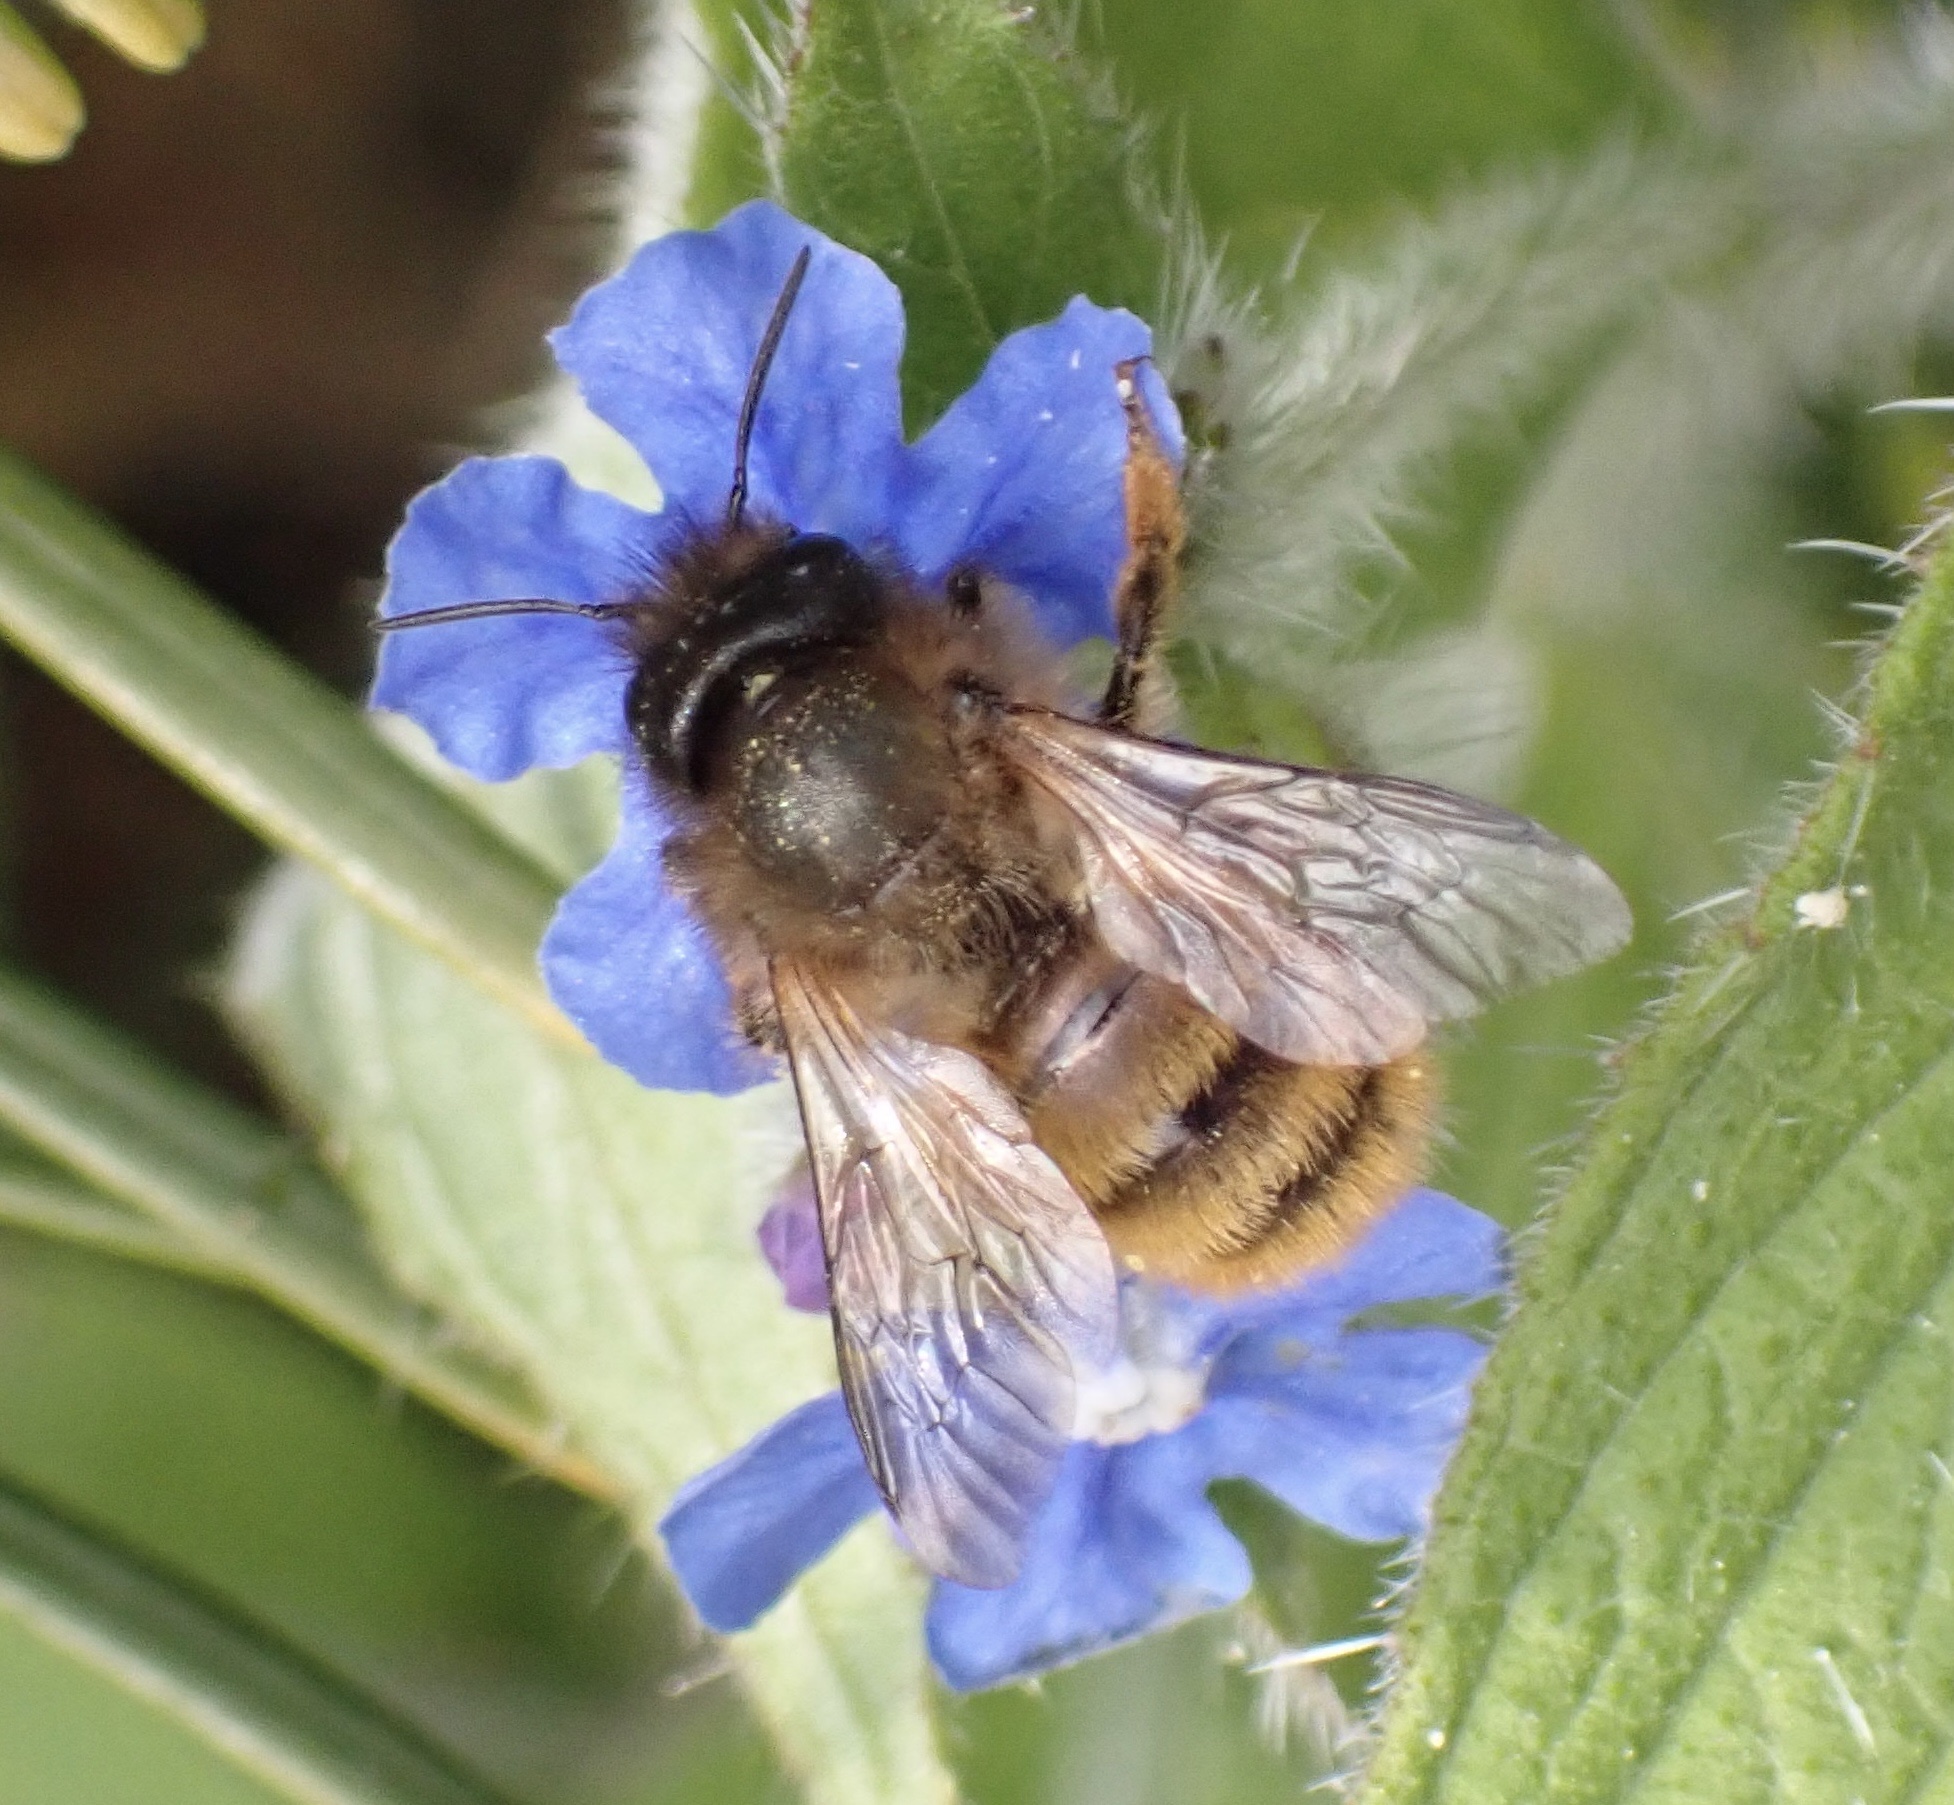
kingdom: Animalia
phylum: Arthropoda
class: Insecta
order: Hymenoptera
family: Megachilidae
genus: Osmia
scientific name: Osmia bicornis
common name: Red mason bee
